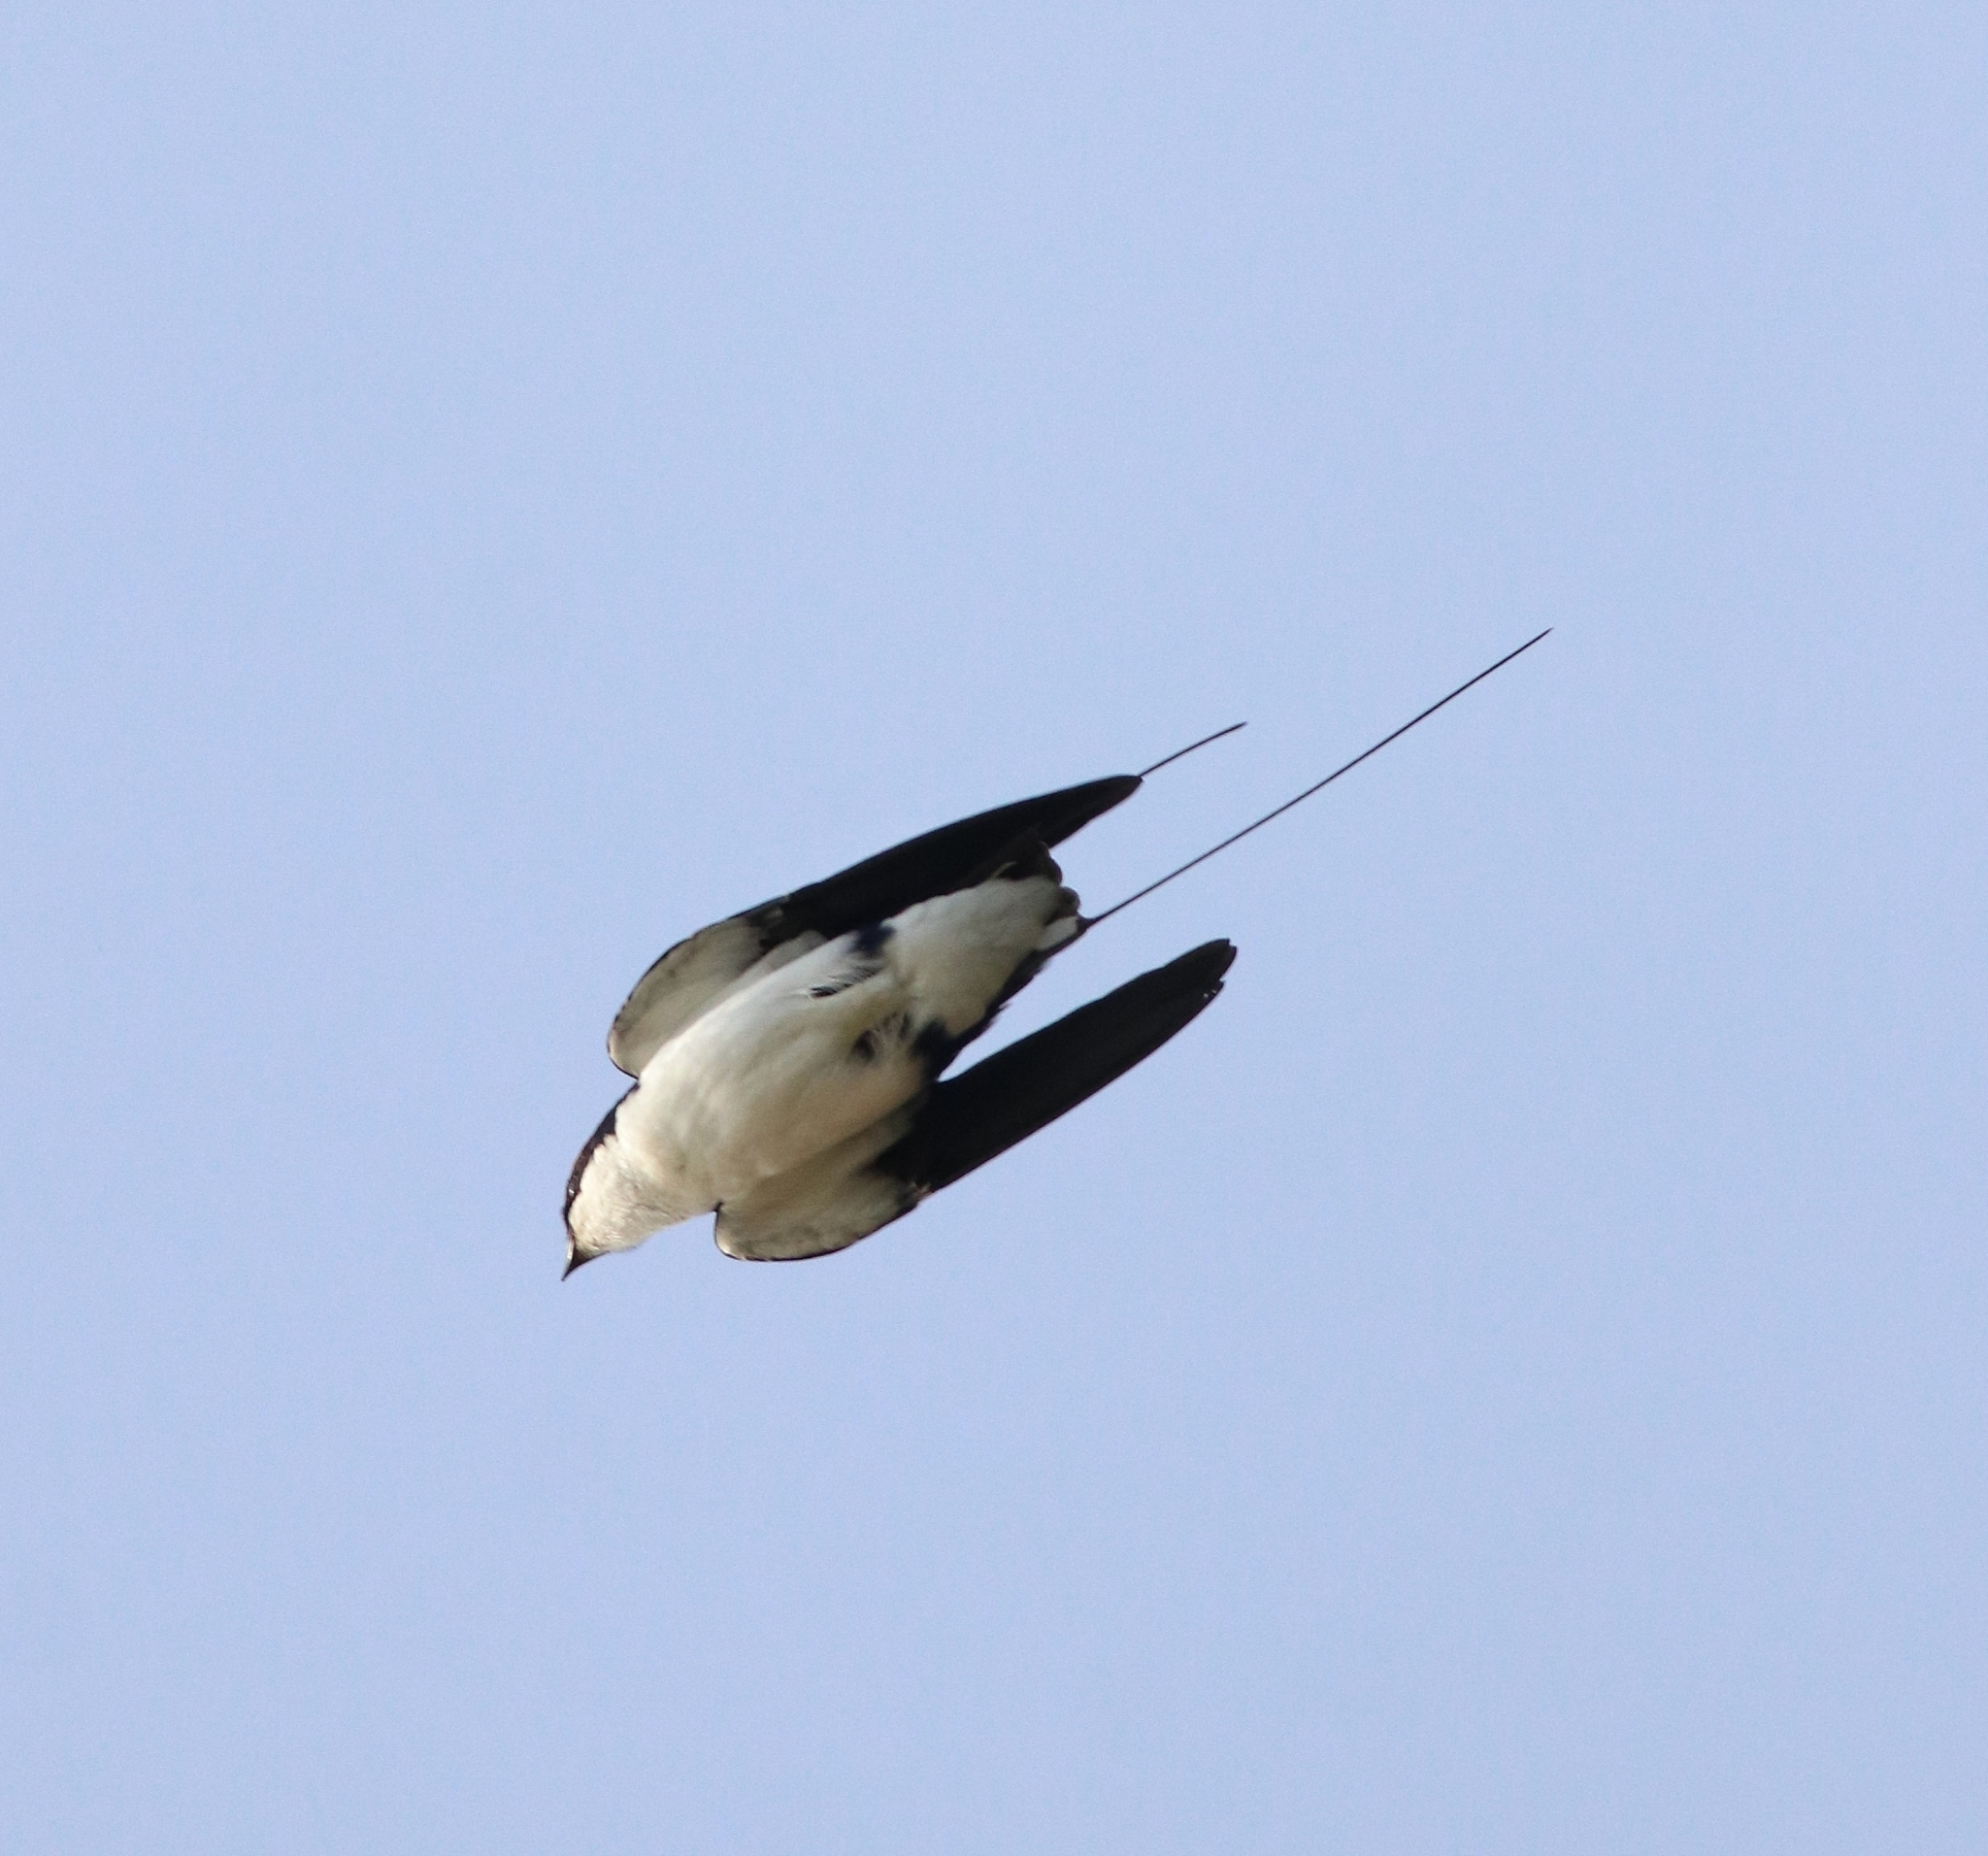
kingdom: Animalia
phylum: Chordata
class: Aves
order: Passeriformes
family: Hirundinidae
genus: Hirundo
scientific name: Hirundo smithii
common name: Wire-tailed swallow
